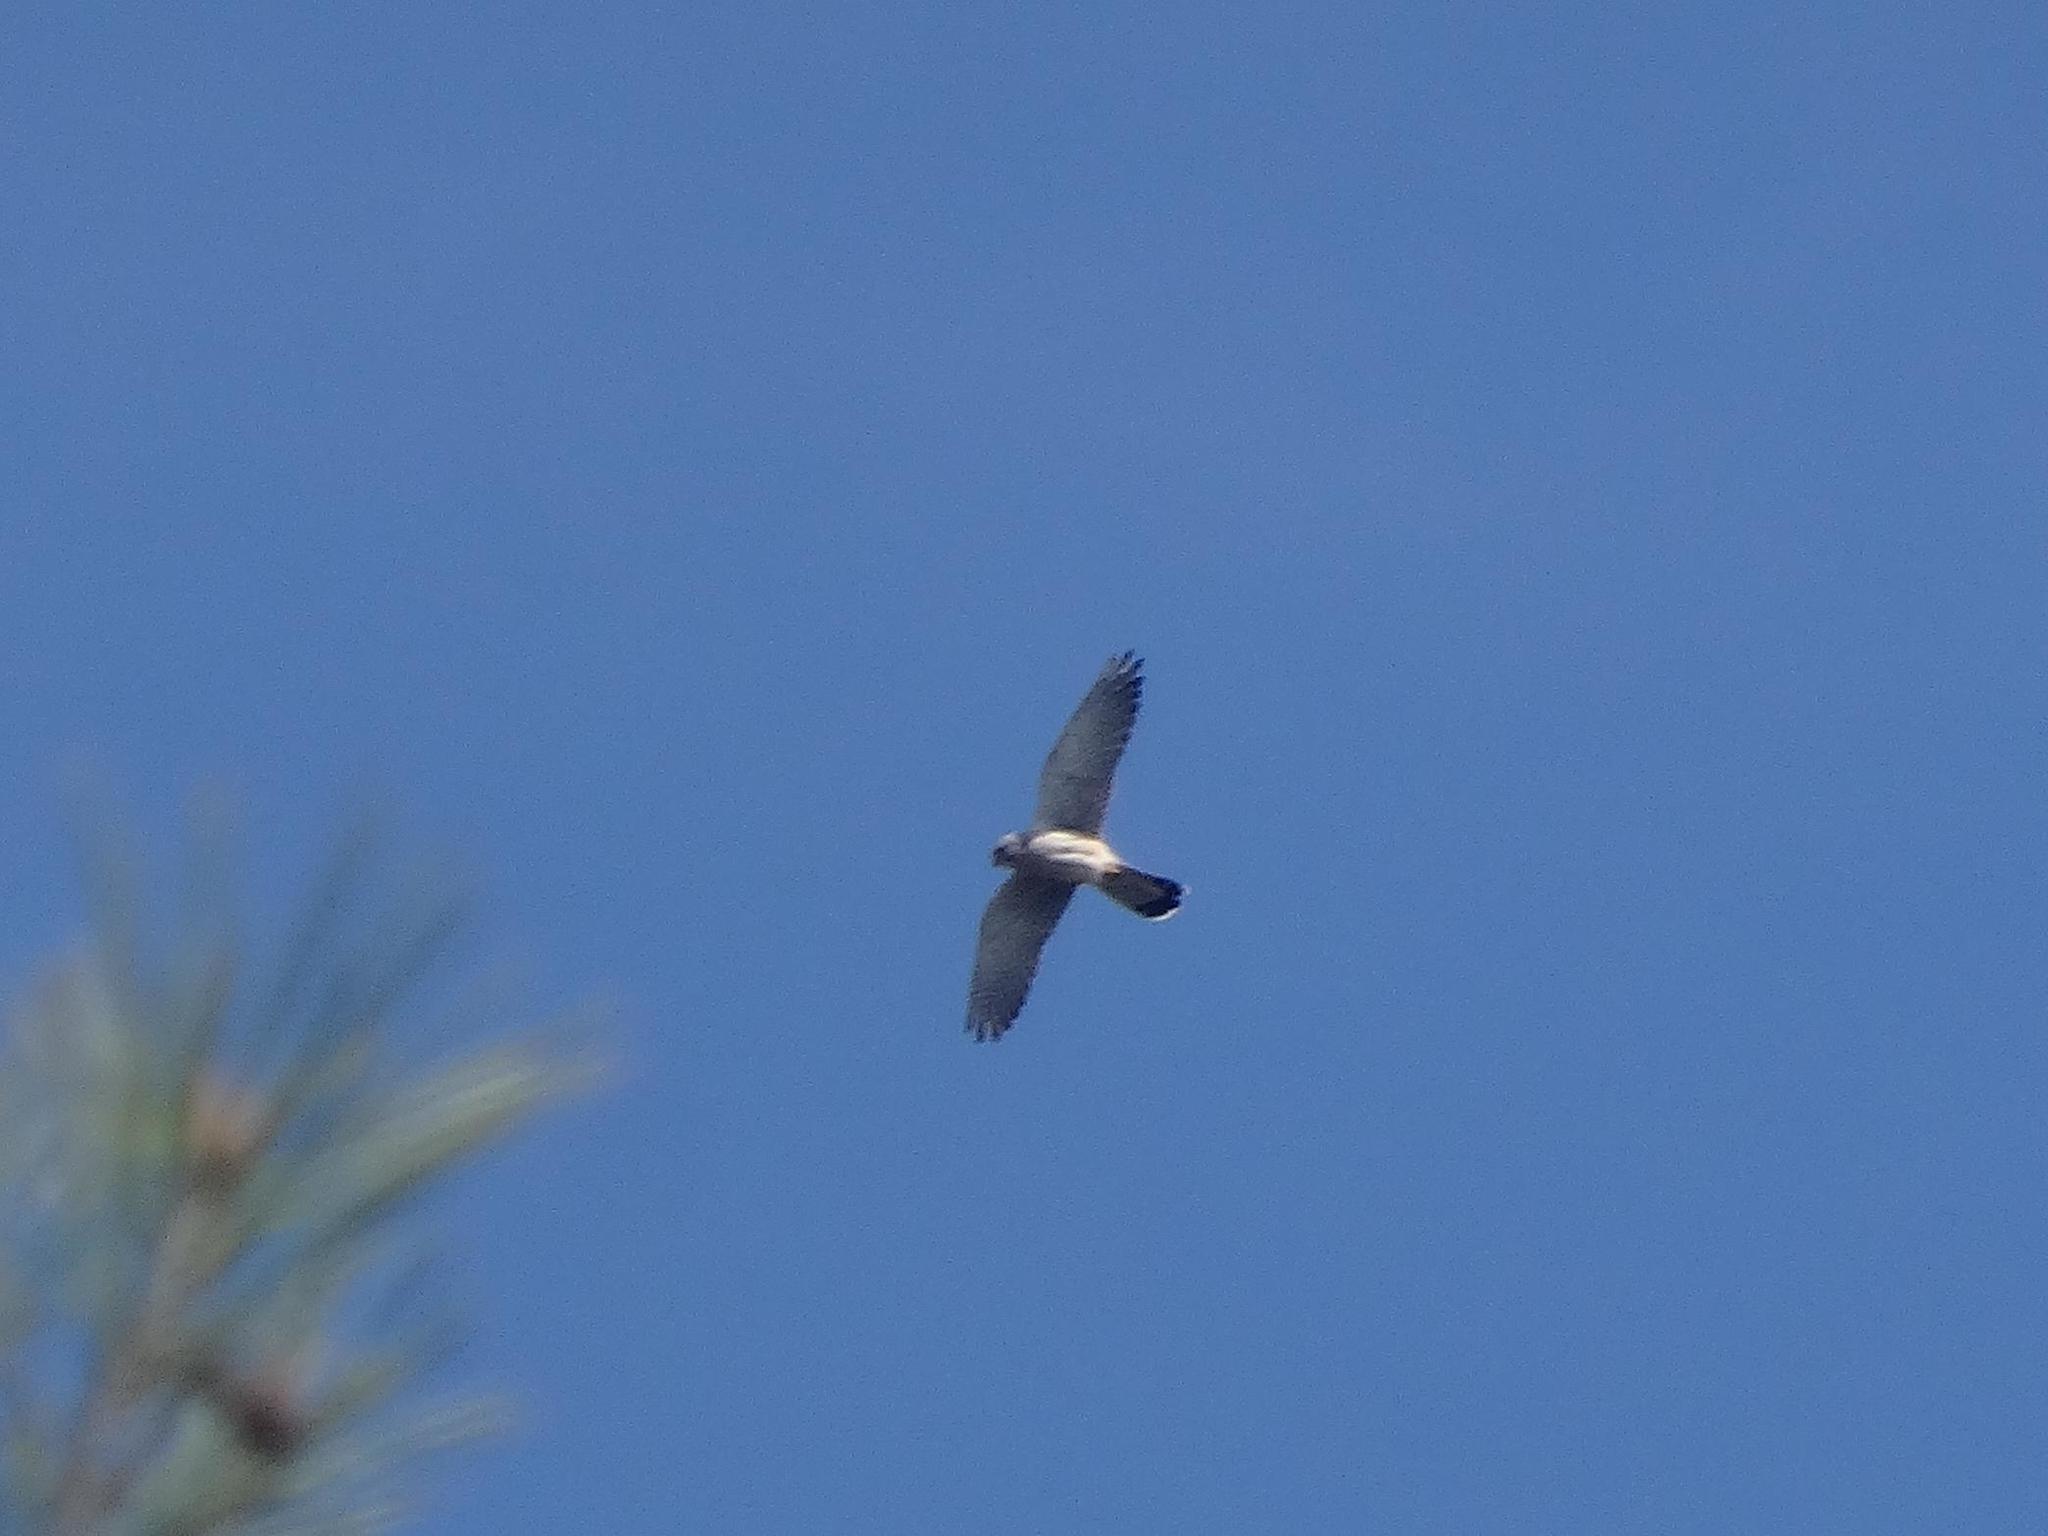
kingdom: Animalia
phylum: Chordata
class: Aves
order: Falconiformes
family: Falconidae
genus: Falco
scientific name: Falco tinnunculus
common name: Common kestrel
